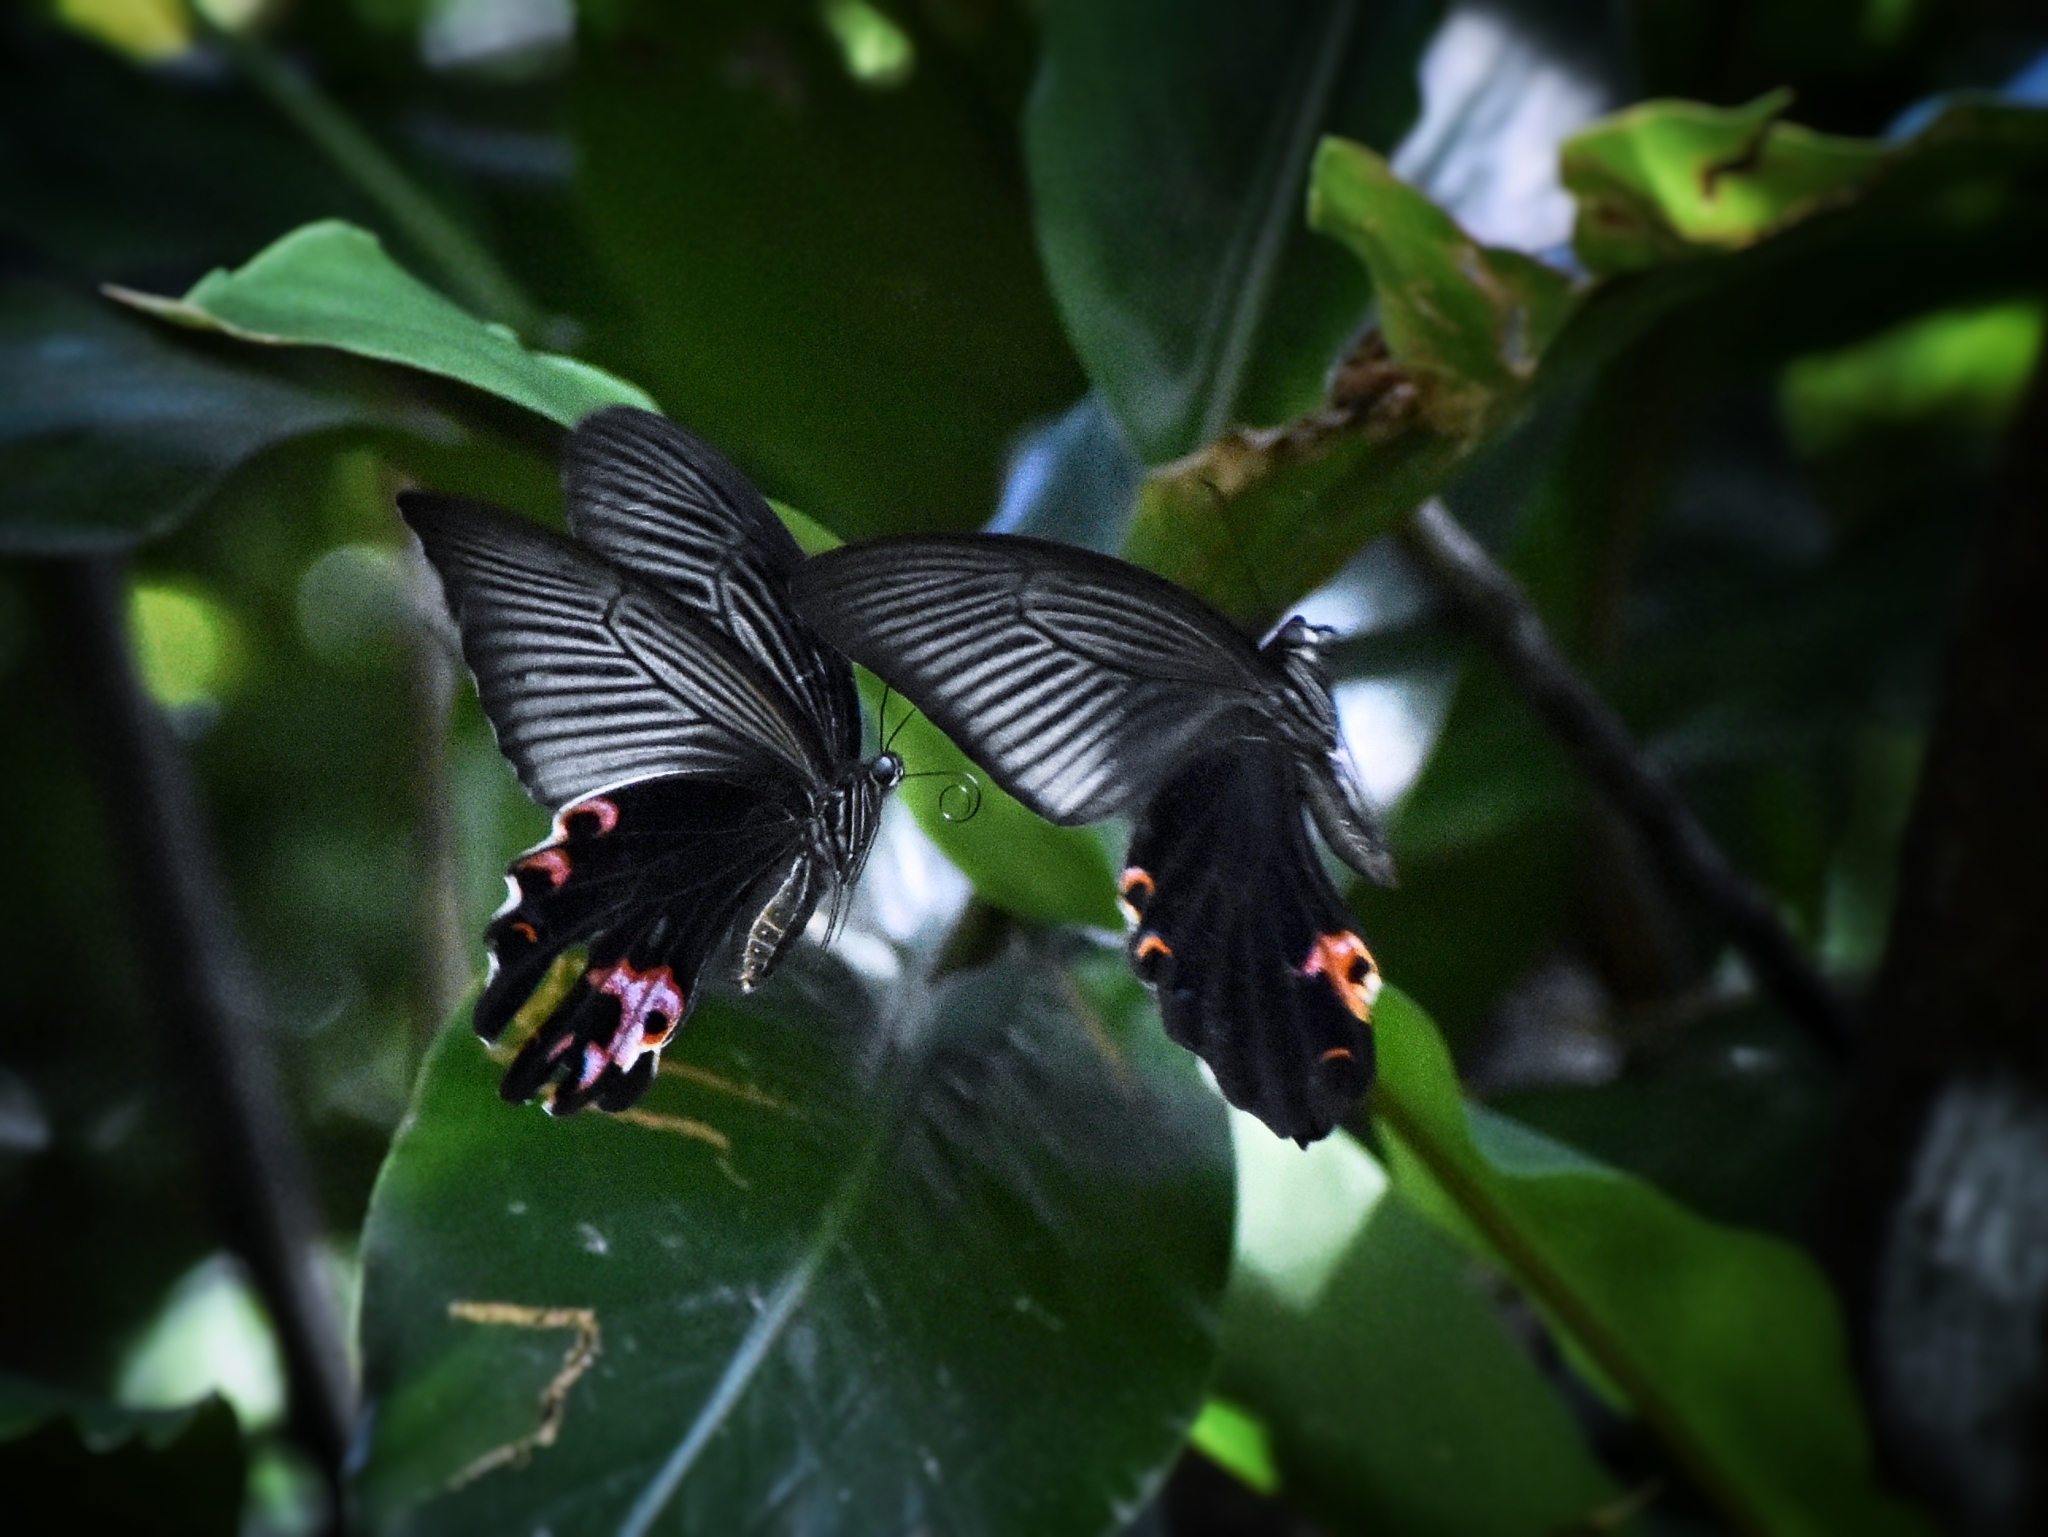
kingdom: Animalia
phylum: Arthropoda
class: Insecta
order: Lepidoptera
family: Papilionidae
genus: Papilio
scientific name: Papilio protenor
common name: Spangle
